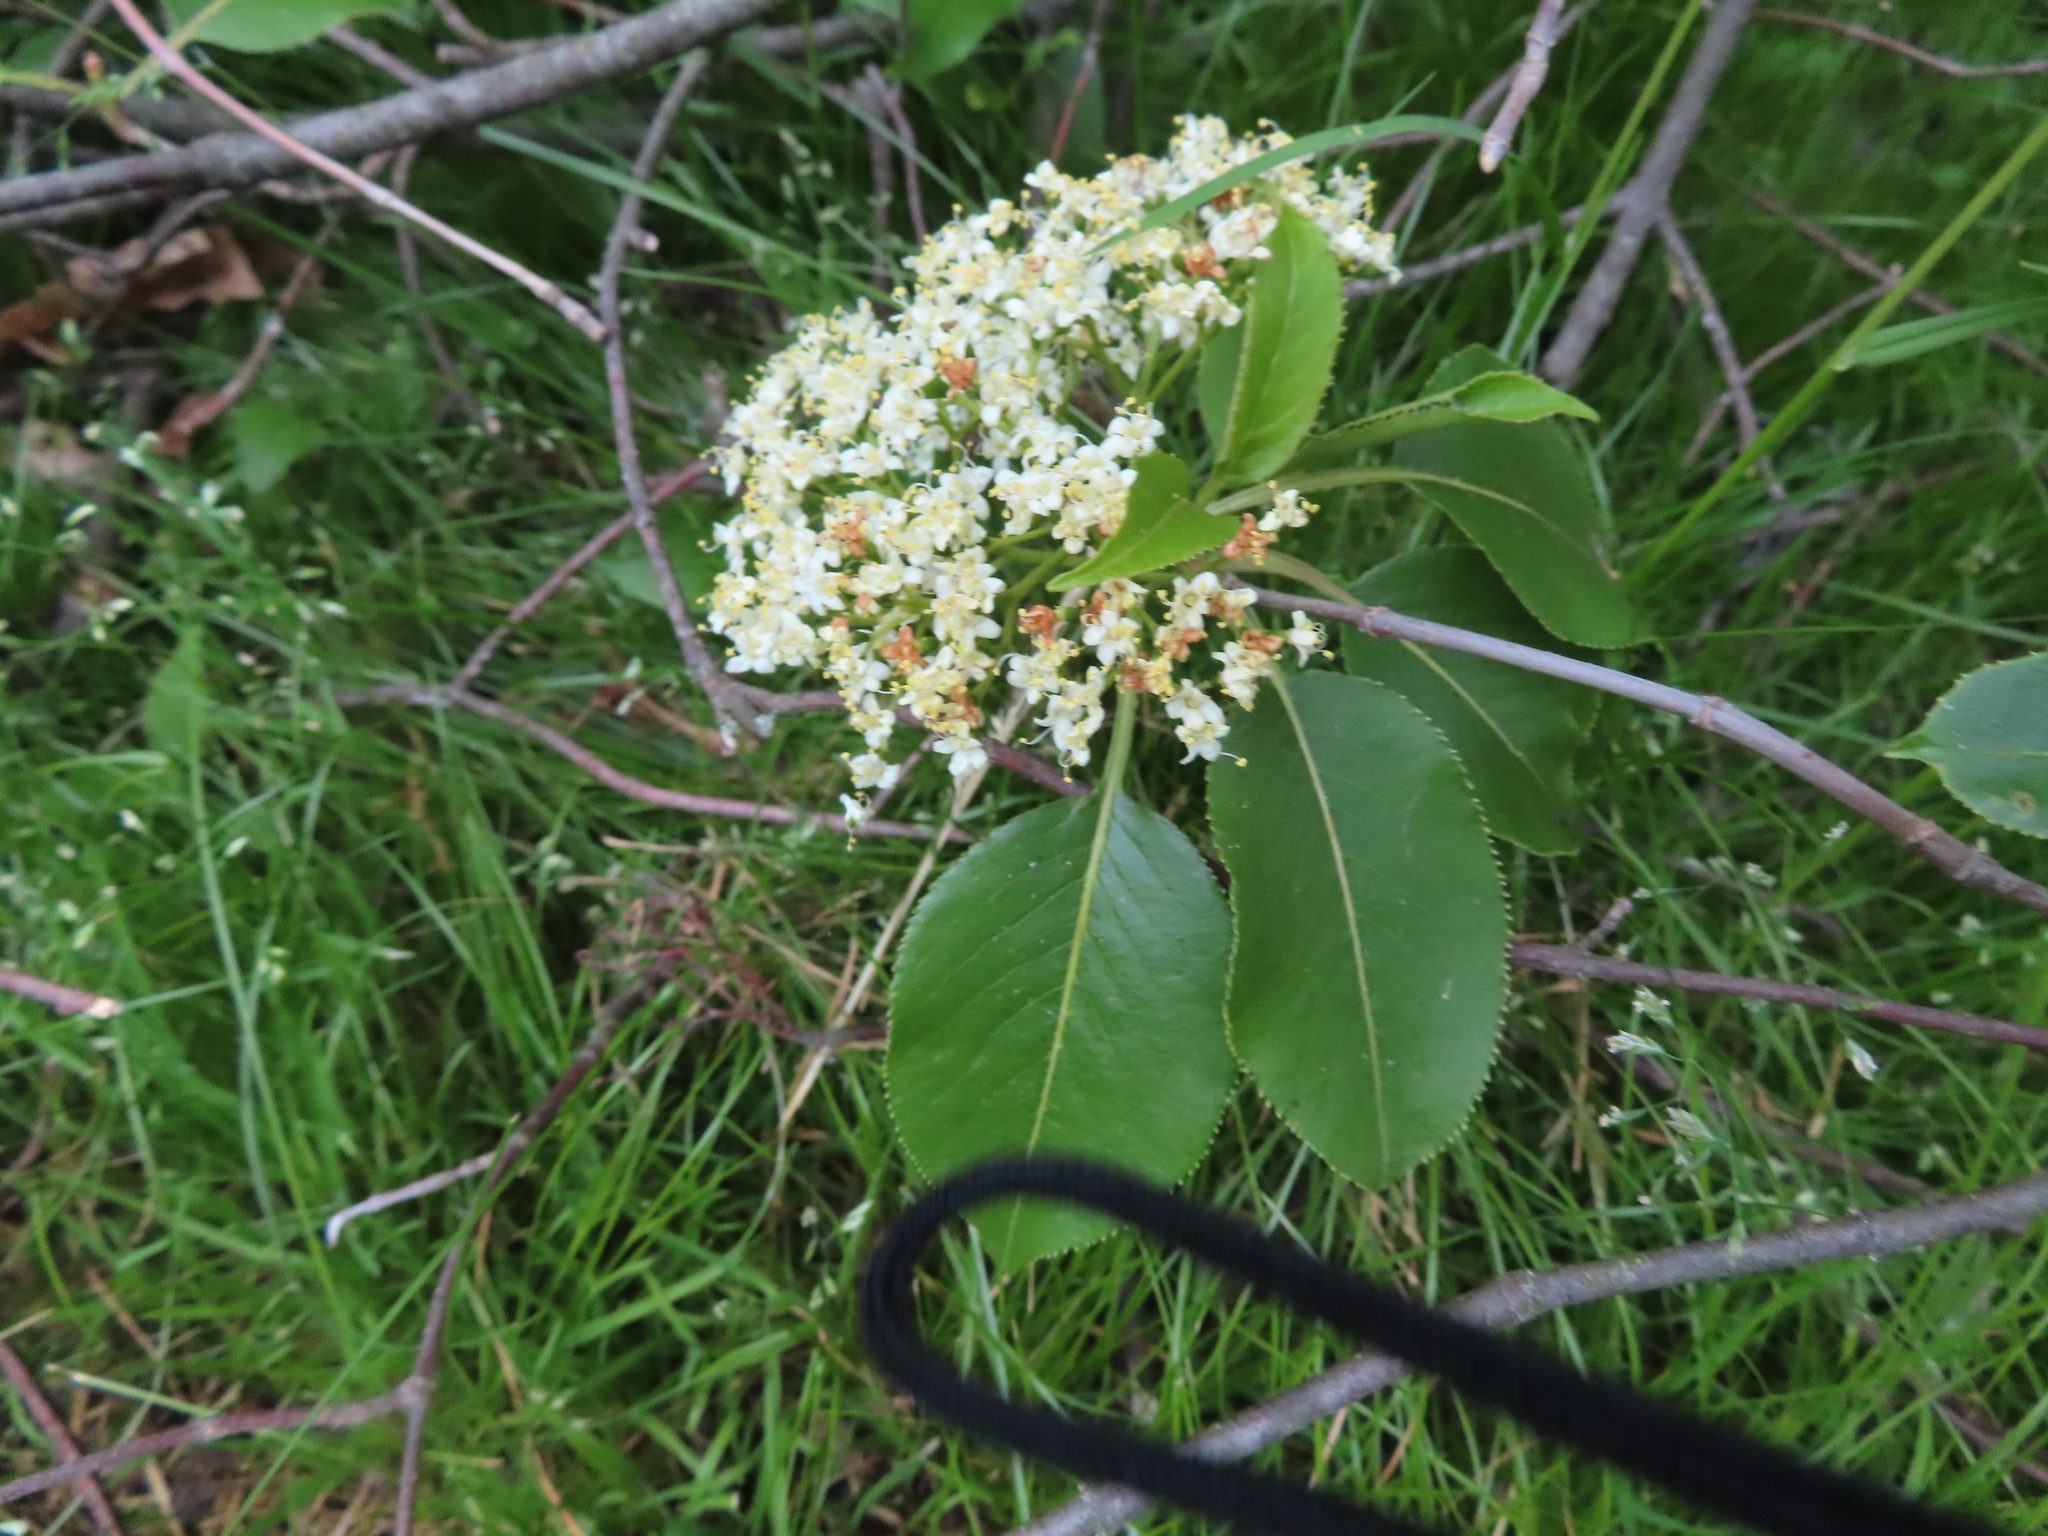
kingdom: Plantae
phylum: Tracheophyta
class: Magnoliopsida
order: Dipsacales
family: Viburnaceae
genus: Viburnum
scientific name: Viburnum lentago
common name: Black haw
